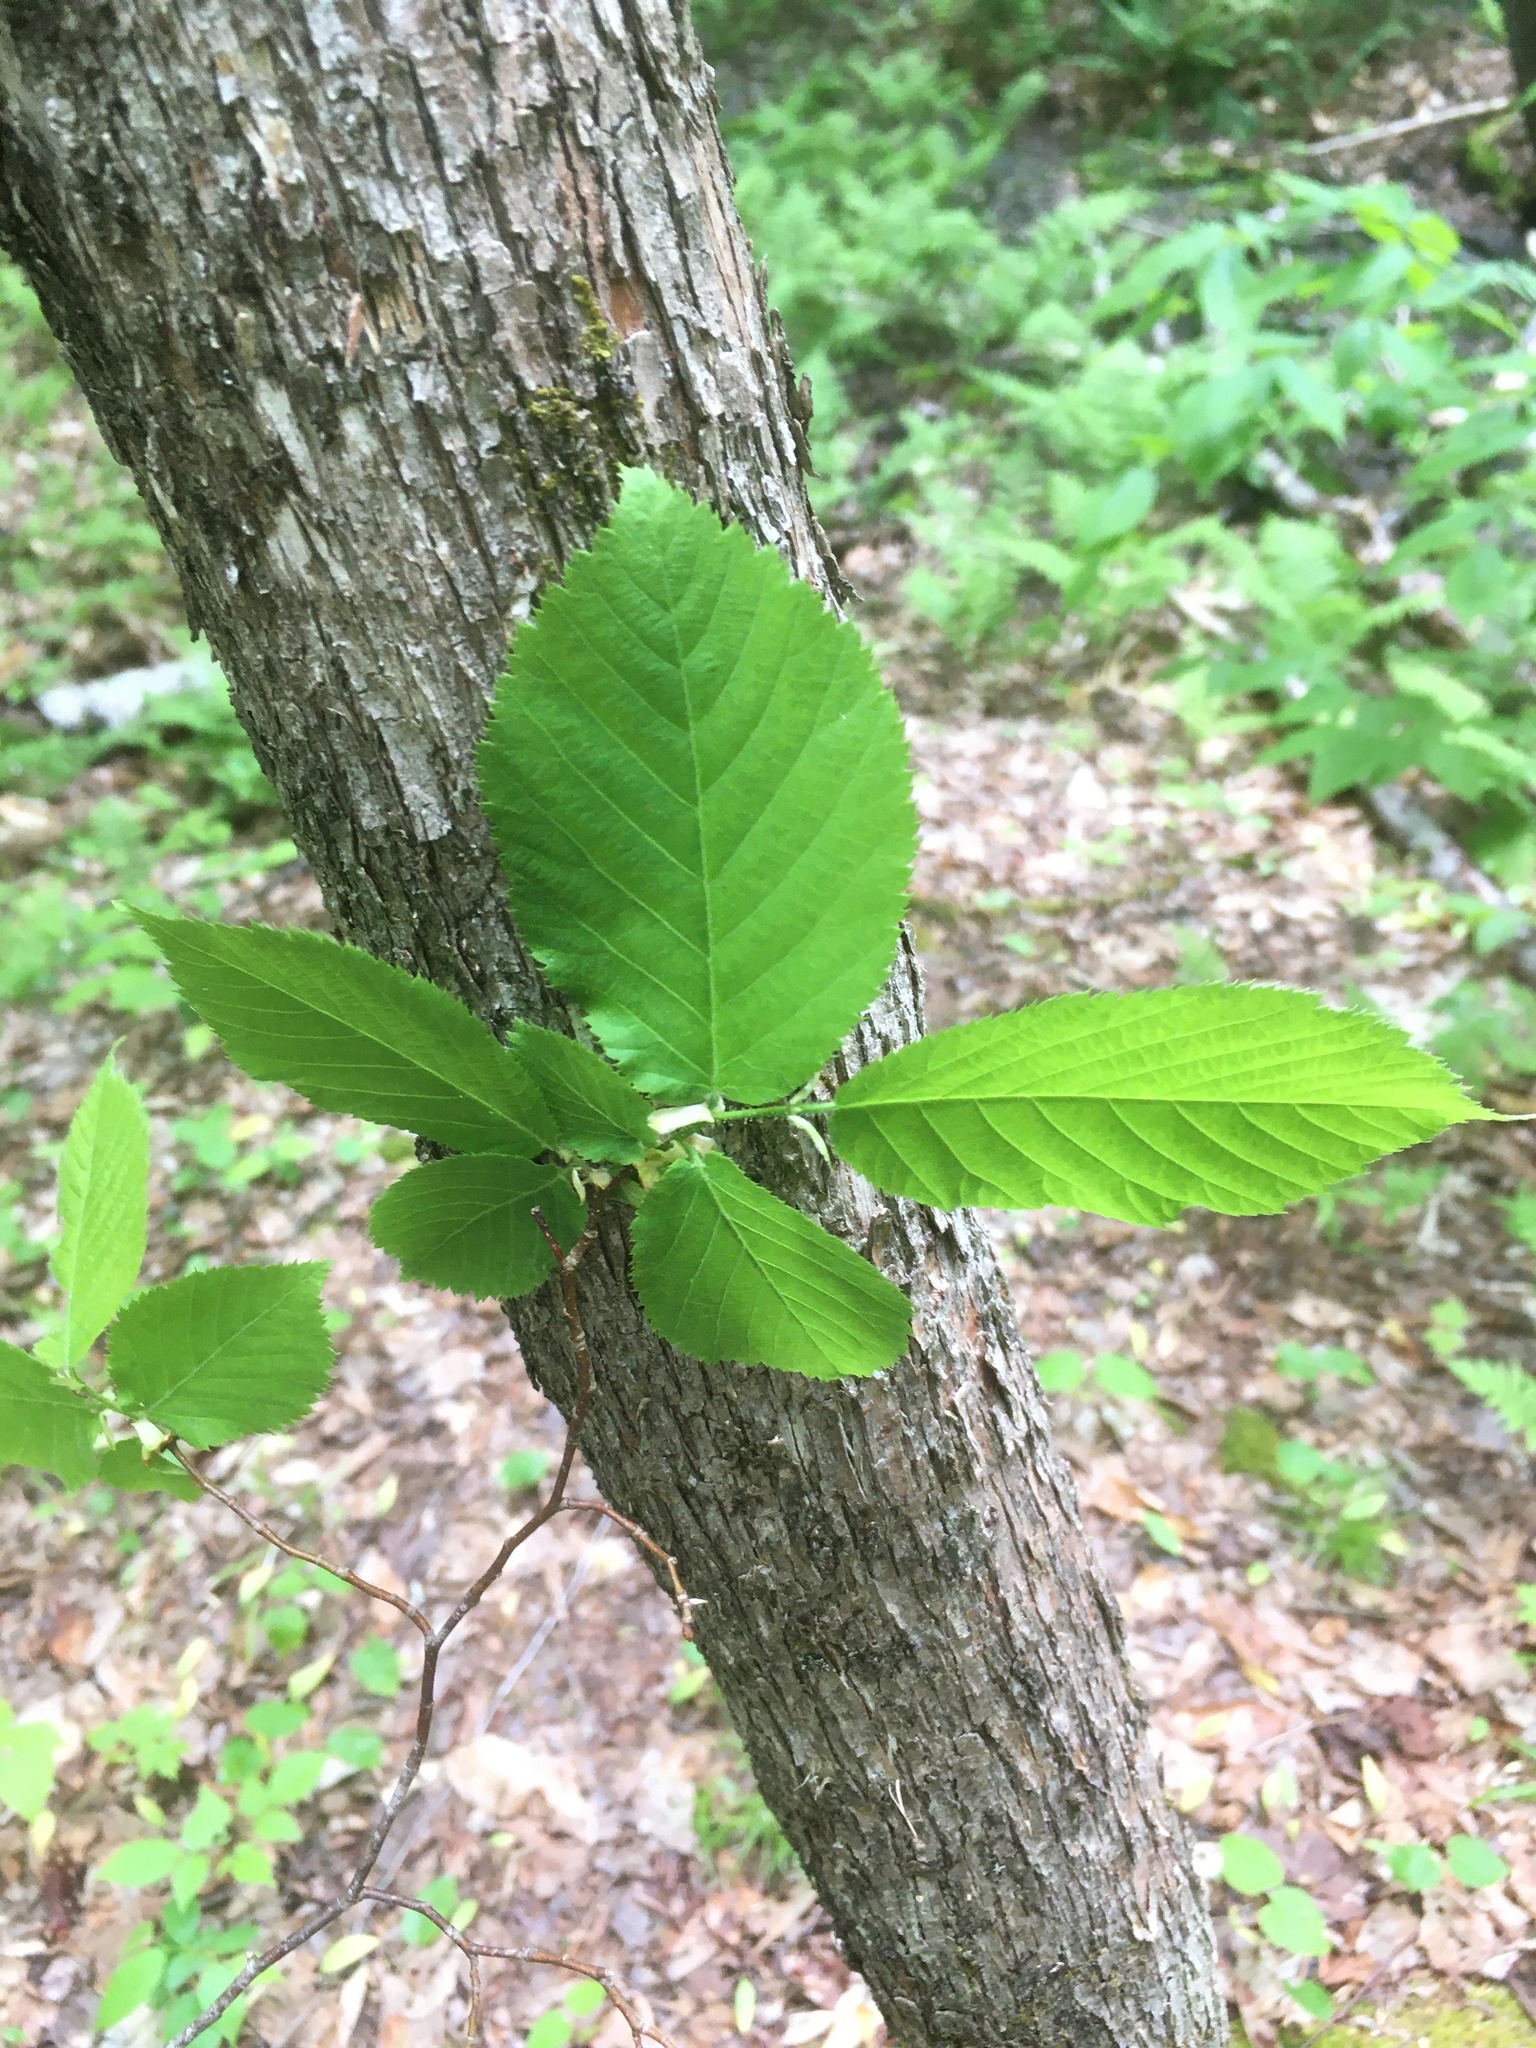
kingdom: Plantae
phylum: Tracheophyta
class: Magnoliopsida
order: Fagales
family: Betulaceae
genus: Ostrya
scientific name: Ostrya virginiana
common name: Ironwood
